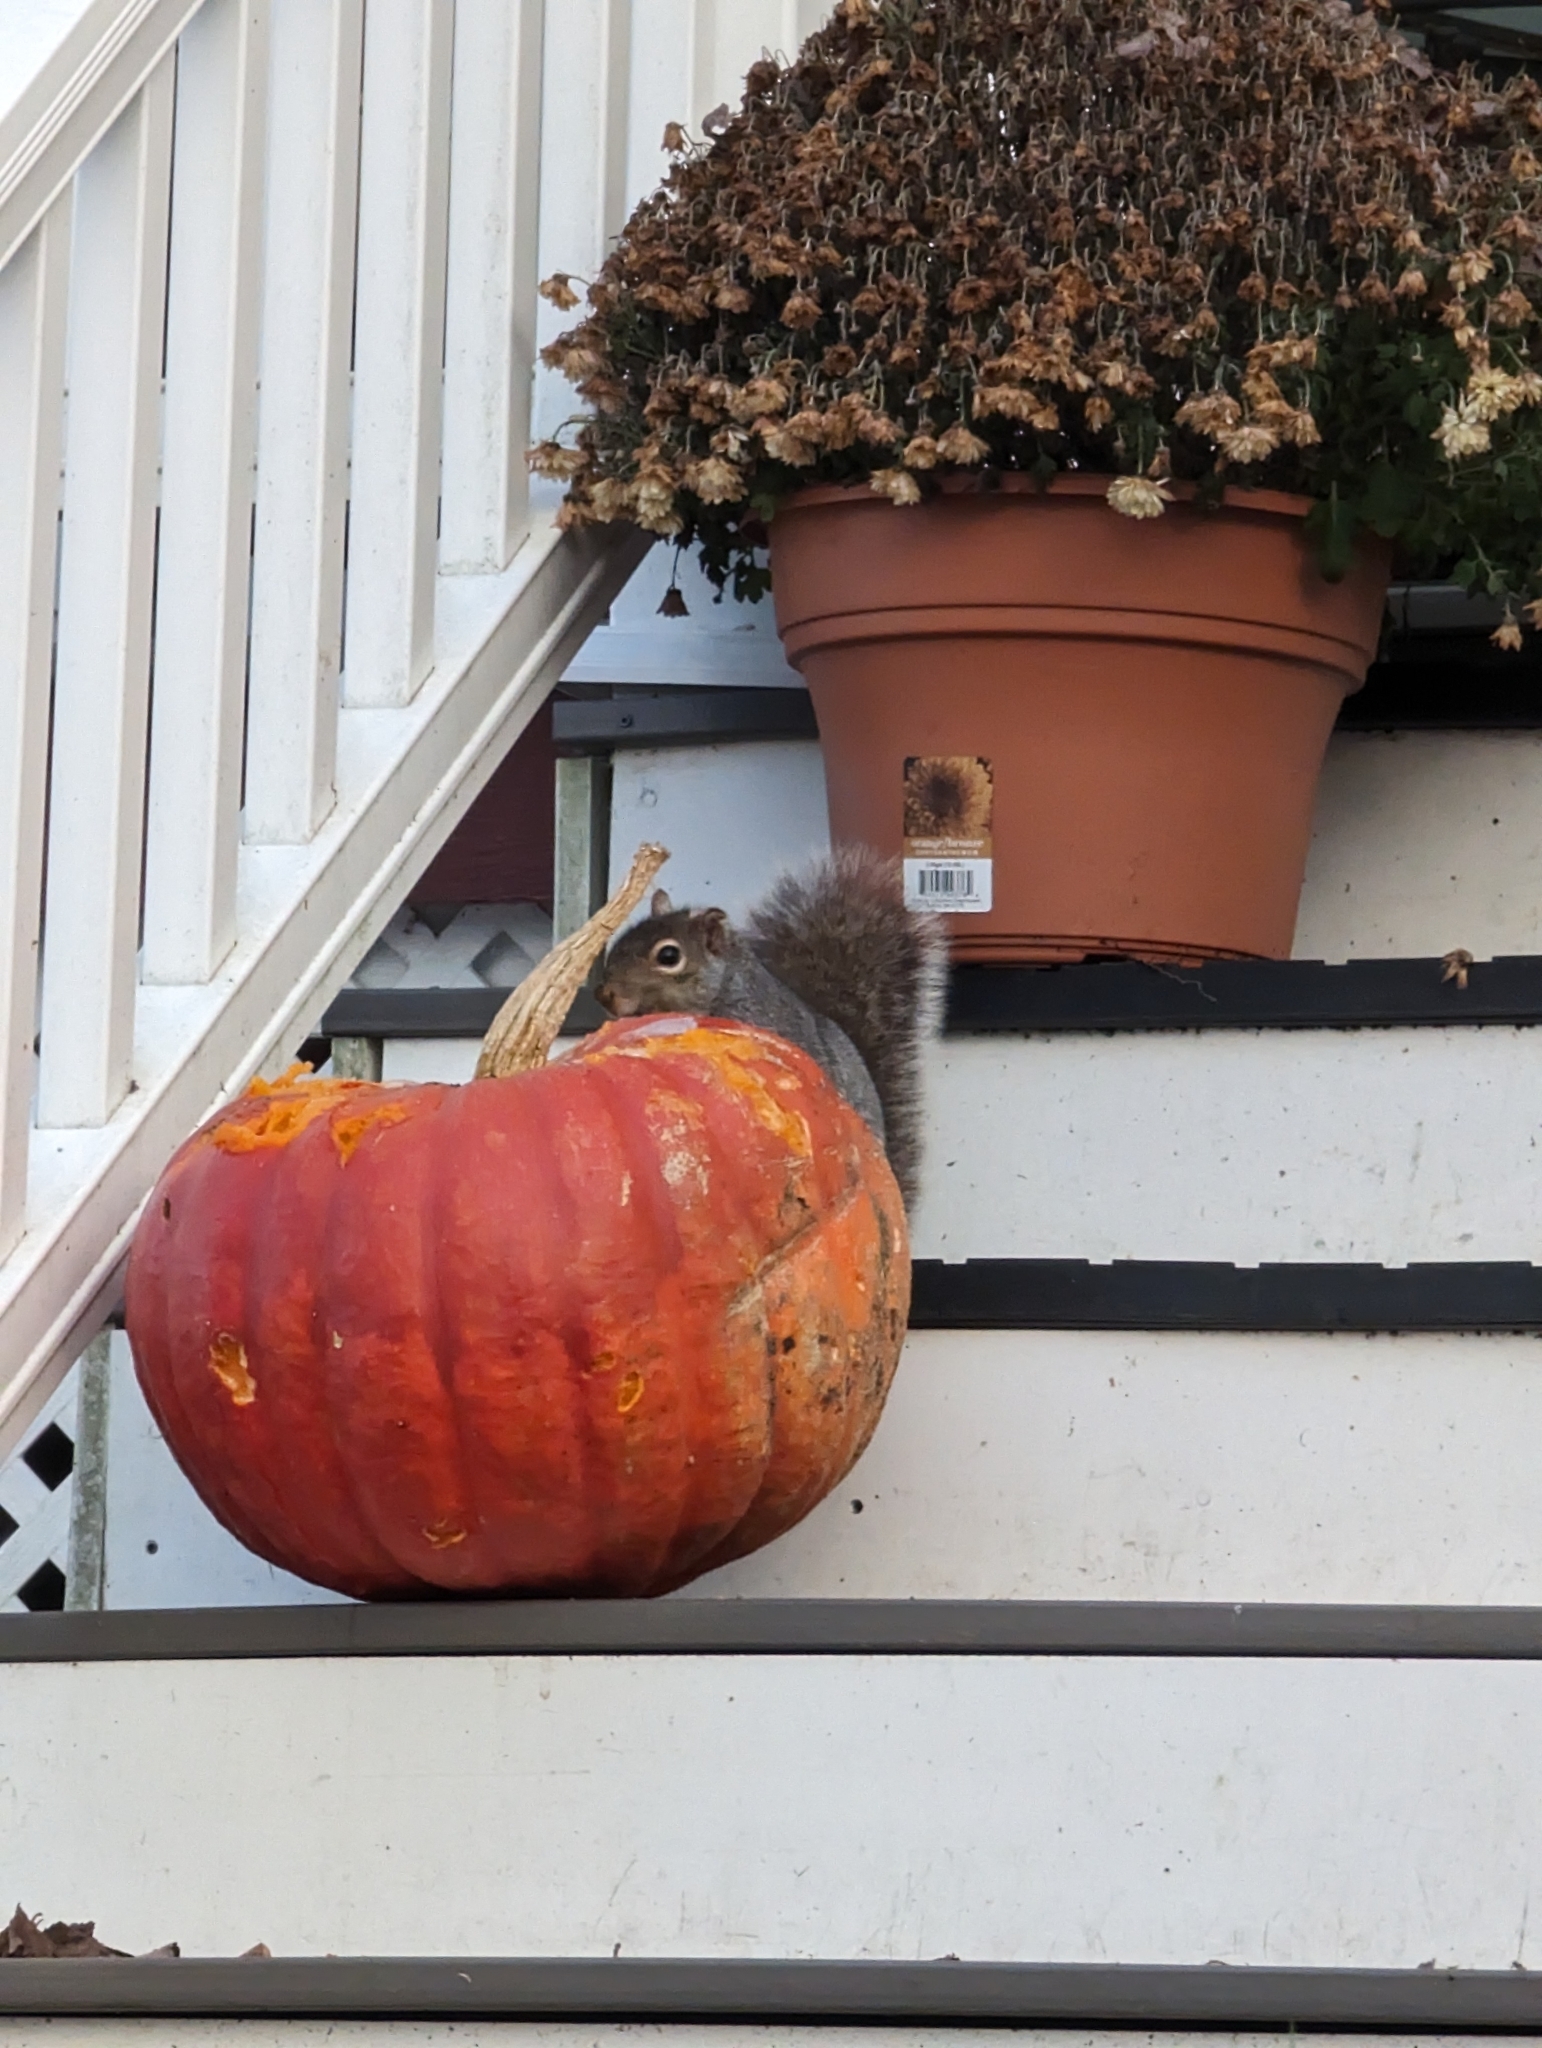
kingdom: Animalia
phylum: Chordata
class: Mammalia
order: Rodentia
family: Sciuridae
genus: Sciurus
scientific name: Sciurus carolinensis
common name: Eastern gray squirrel
